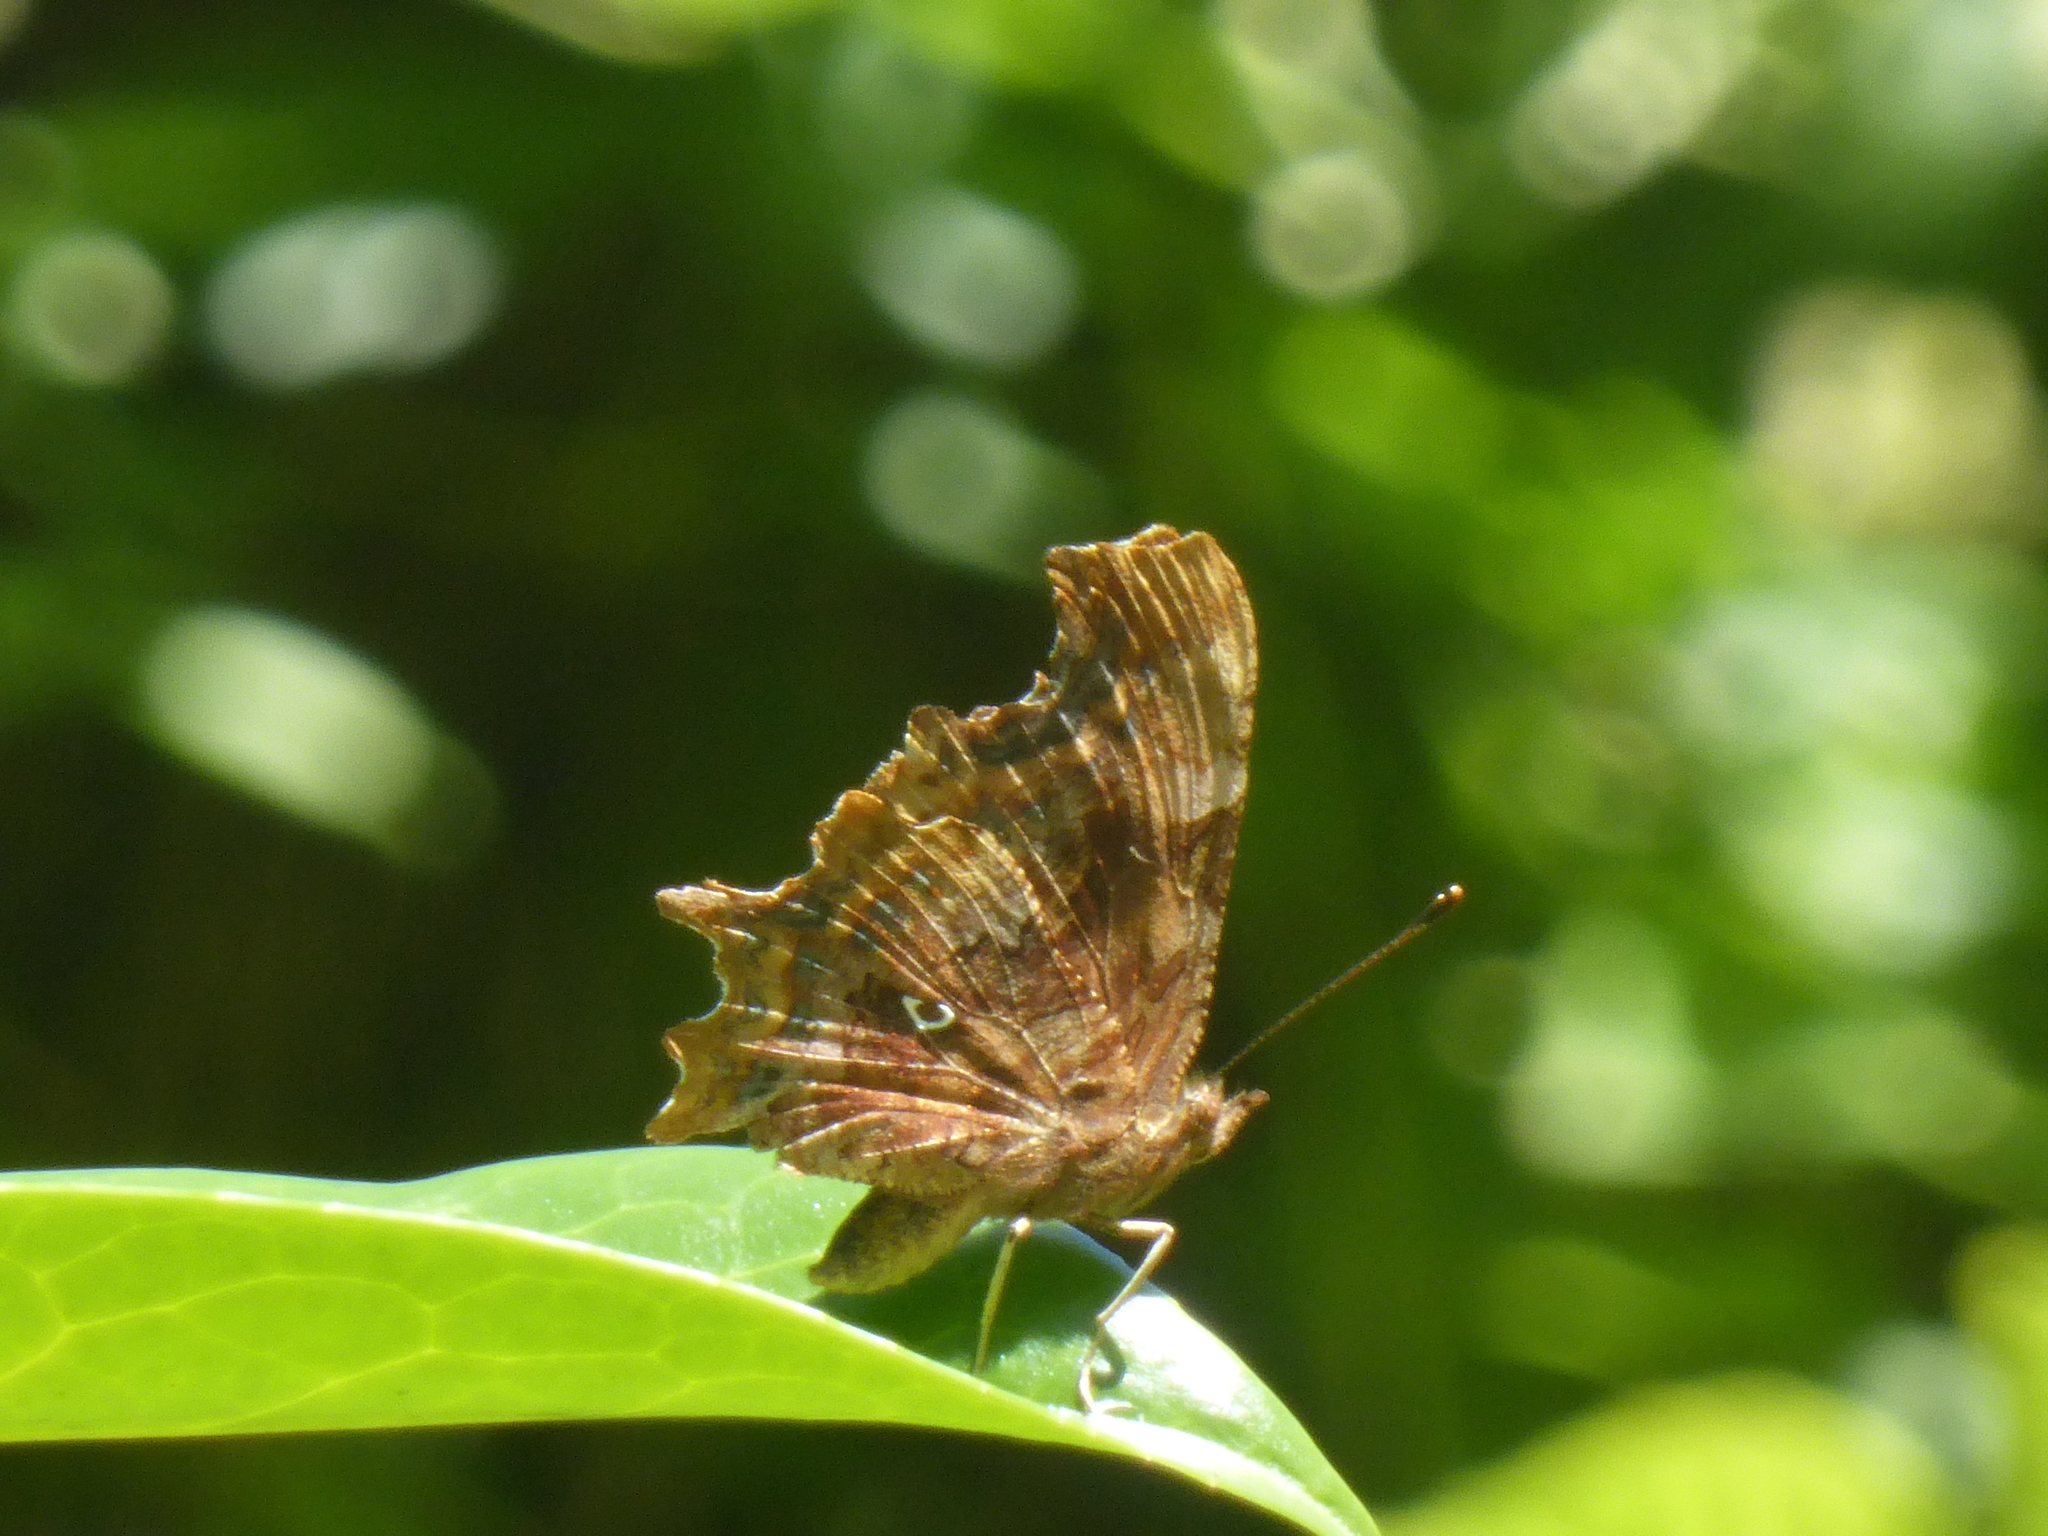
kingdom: Animalia
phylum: Arthropoda
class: Insecta
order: Lepidoptera
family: Nymphalidae
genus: Polygonia
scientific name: Polygonia c-album
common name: Comma
